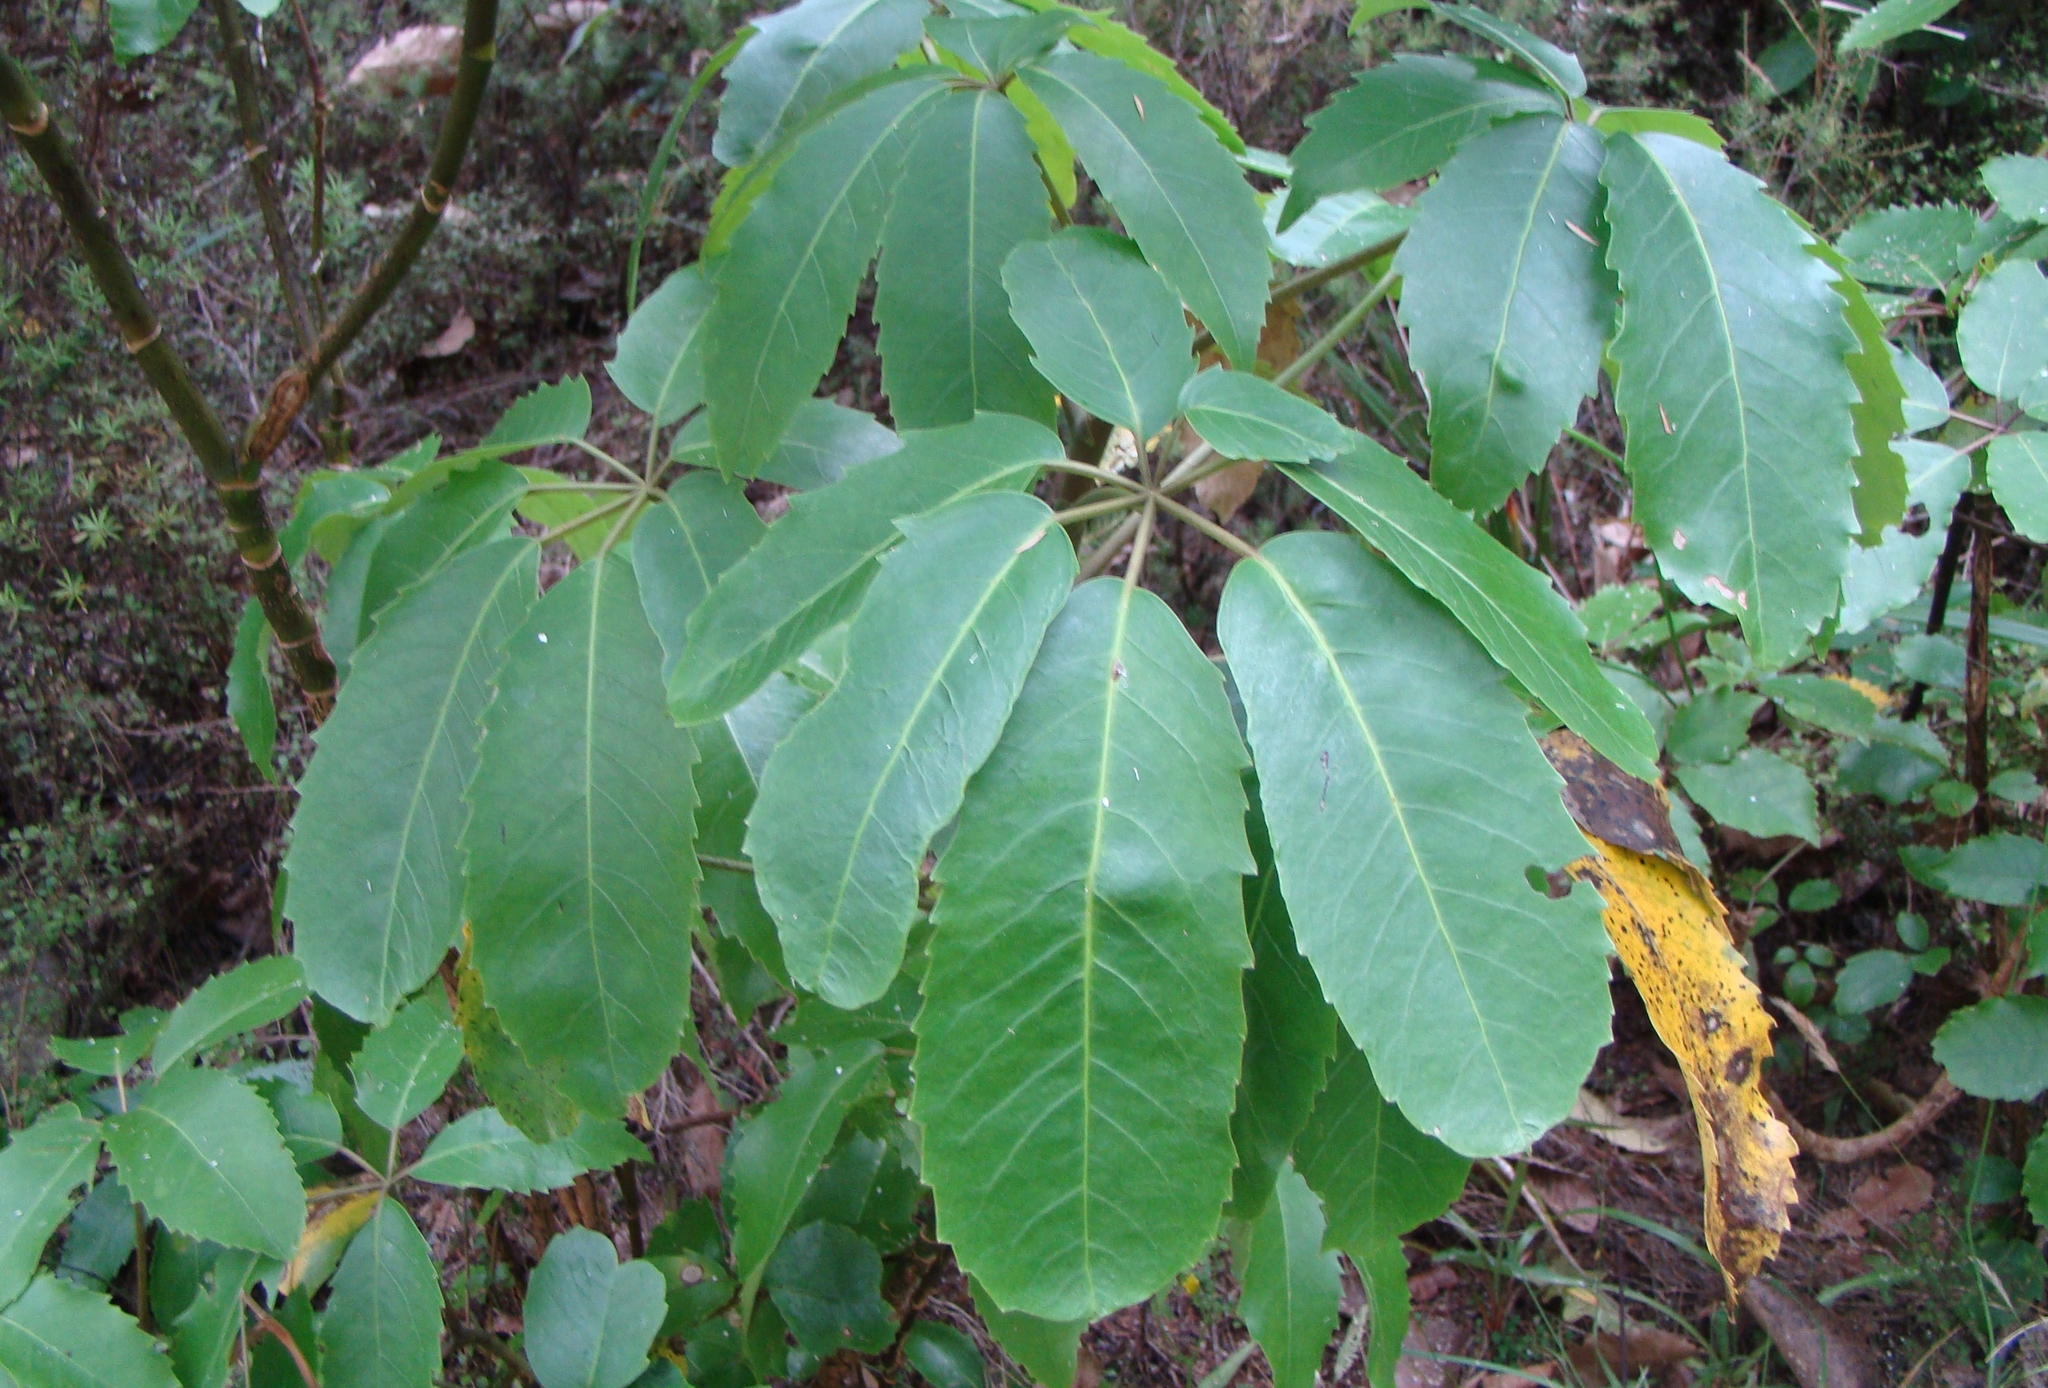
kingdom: Plantae
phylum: Tracheophyta
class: Magnoliopsida
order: Apiales
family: Araliaceae
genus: Neopanax
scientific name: Neopanax arboreus
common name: Five-fingers
